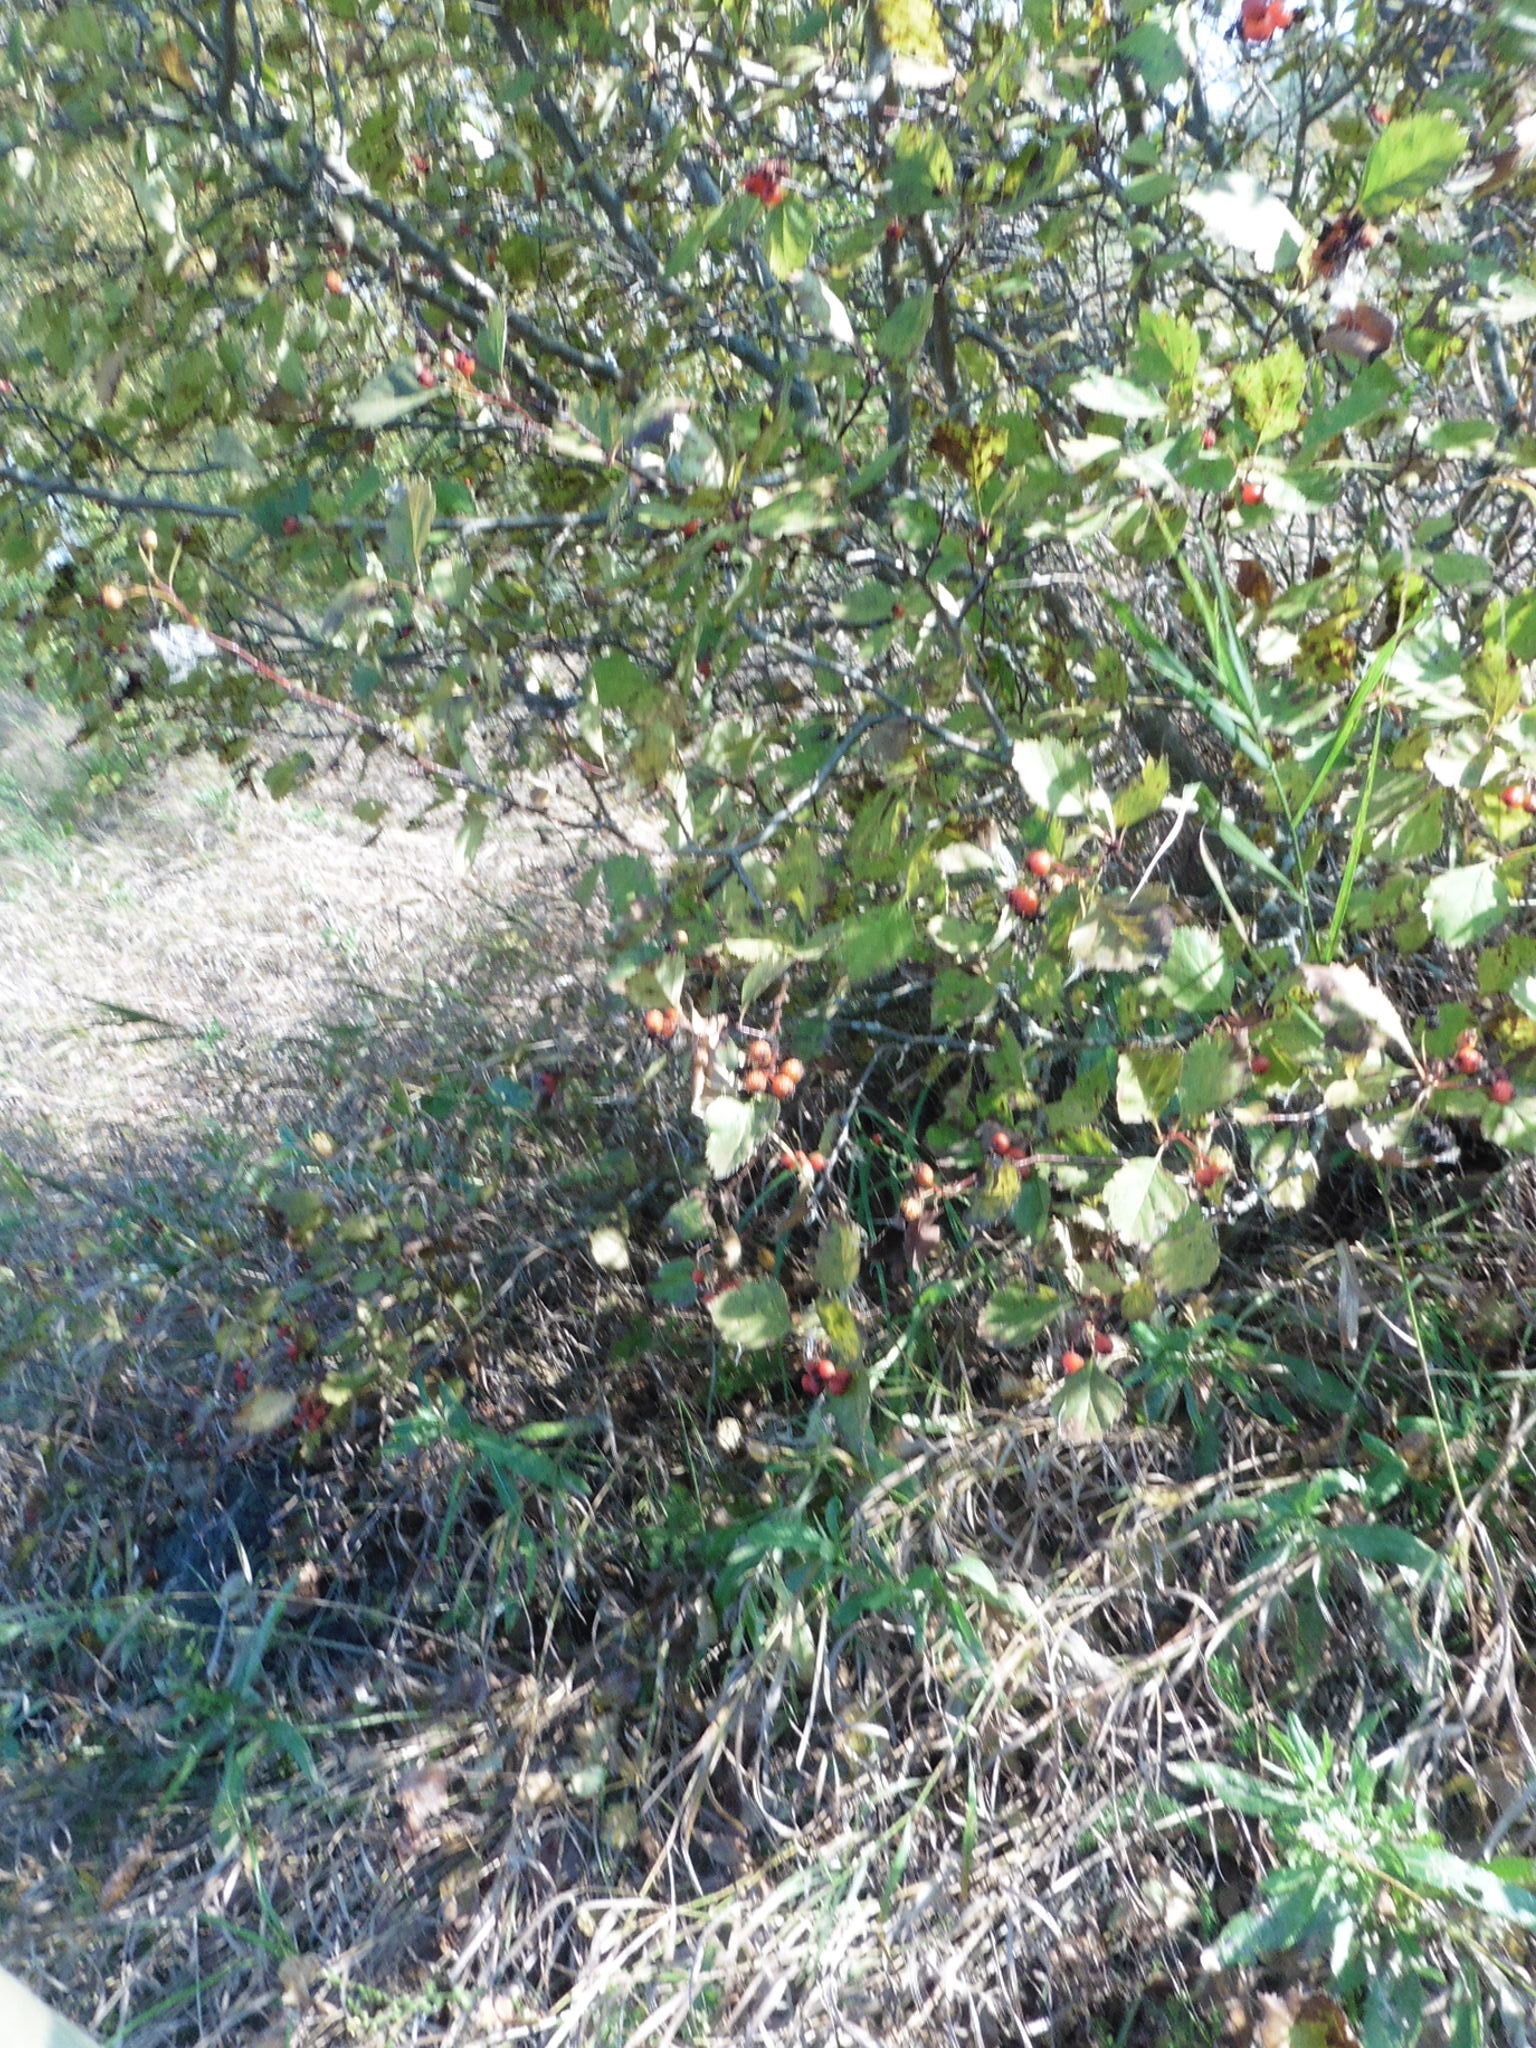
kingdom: Plantae
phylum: Tracheophyta
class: Magnoliopsida
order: Rosales
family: Rosaceae
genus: Crataegus
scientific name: Crataegus sanguinea
